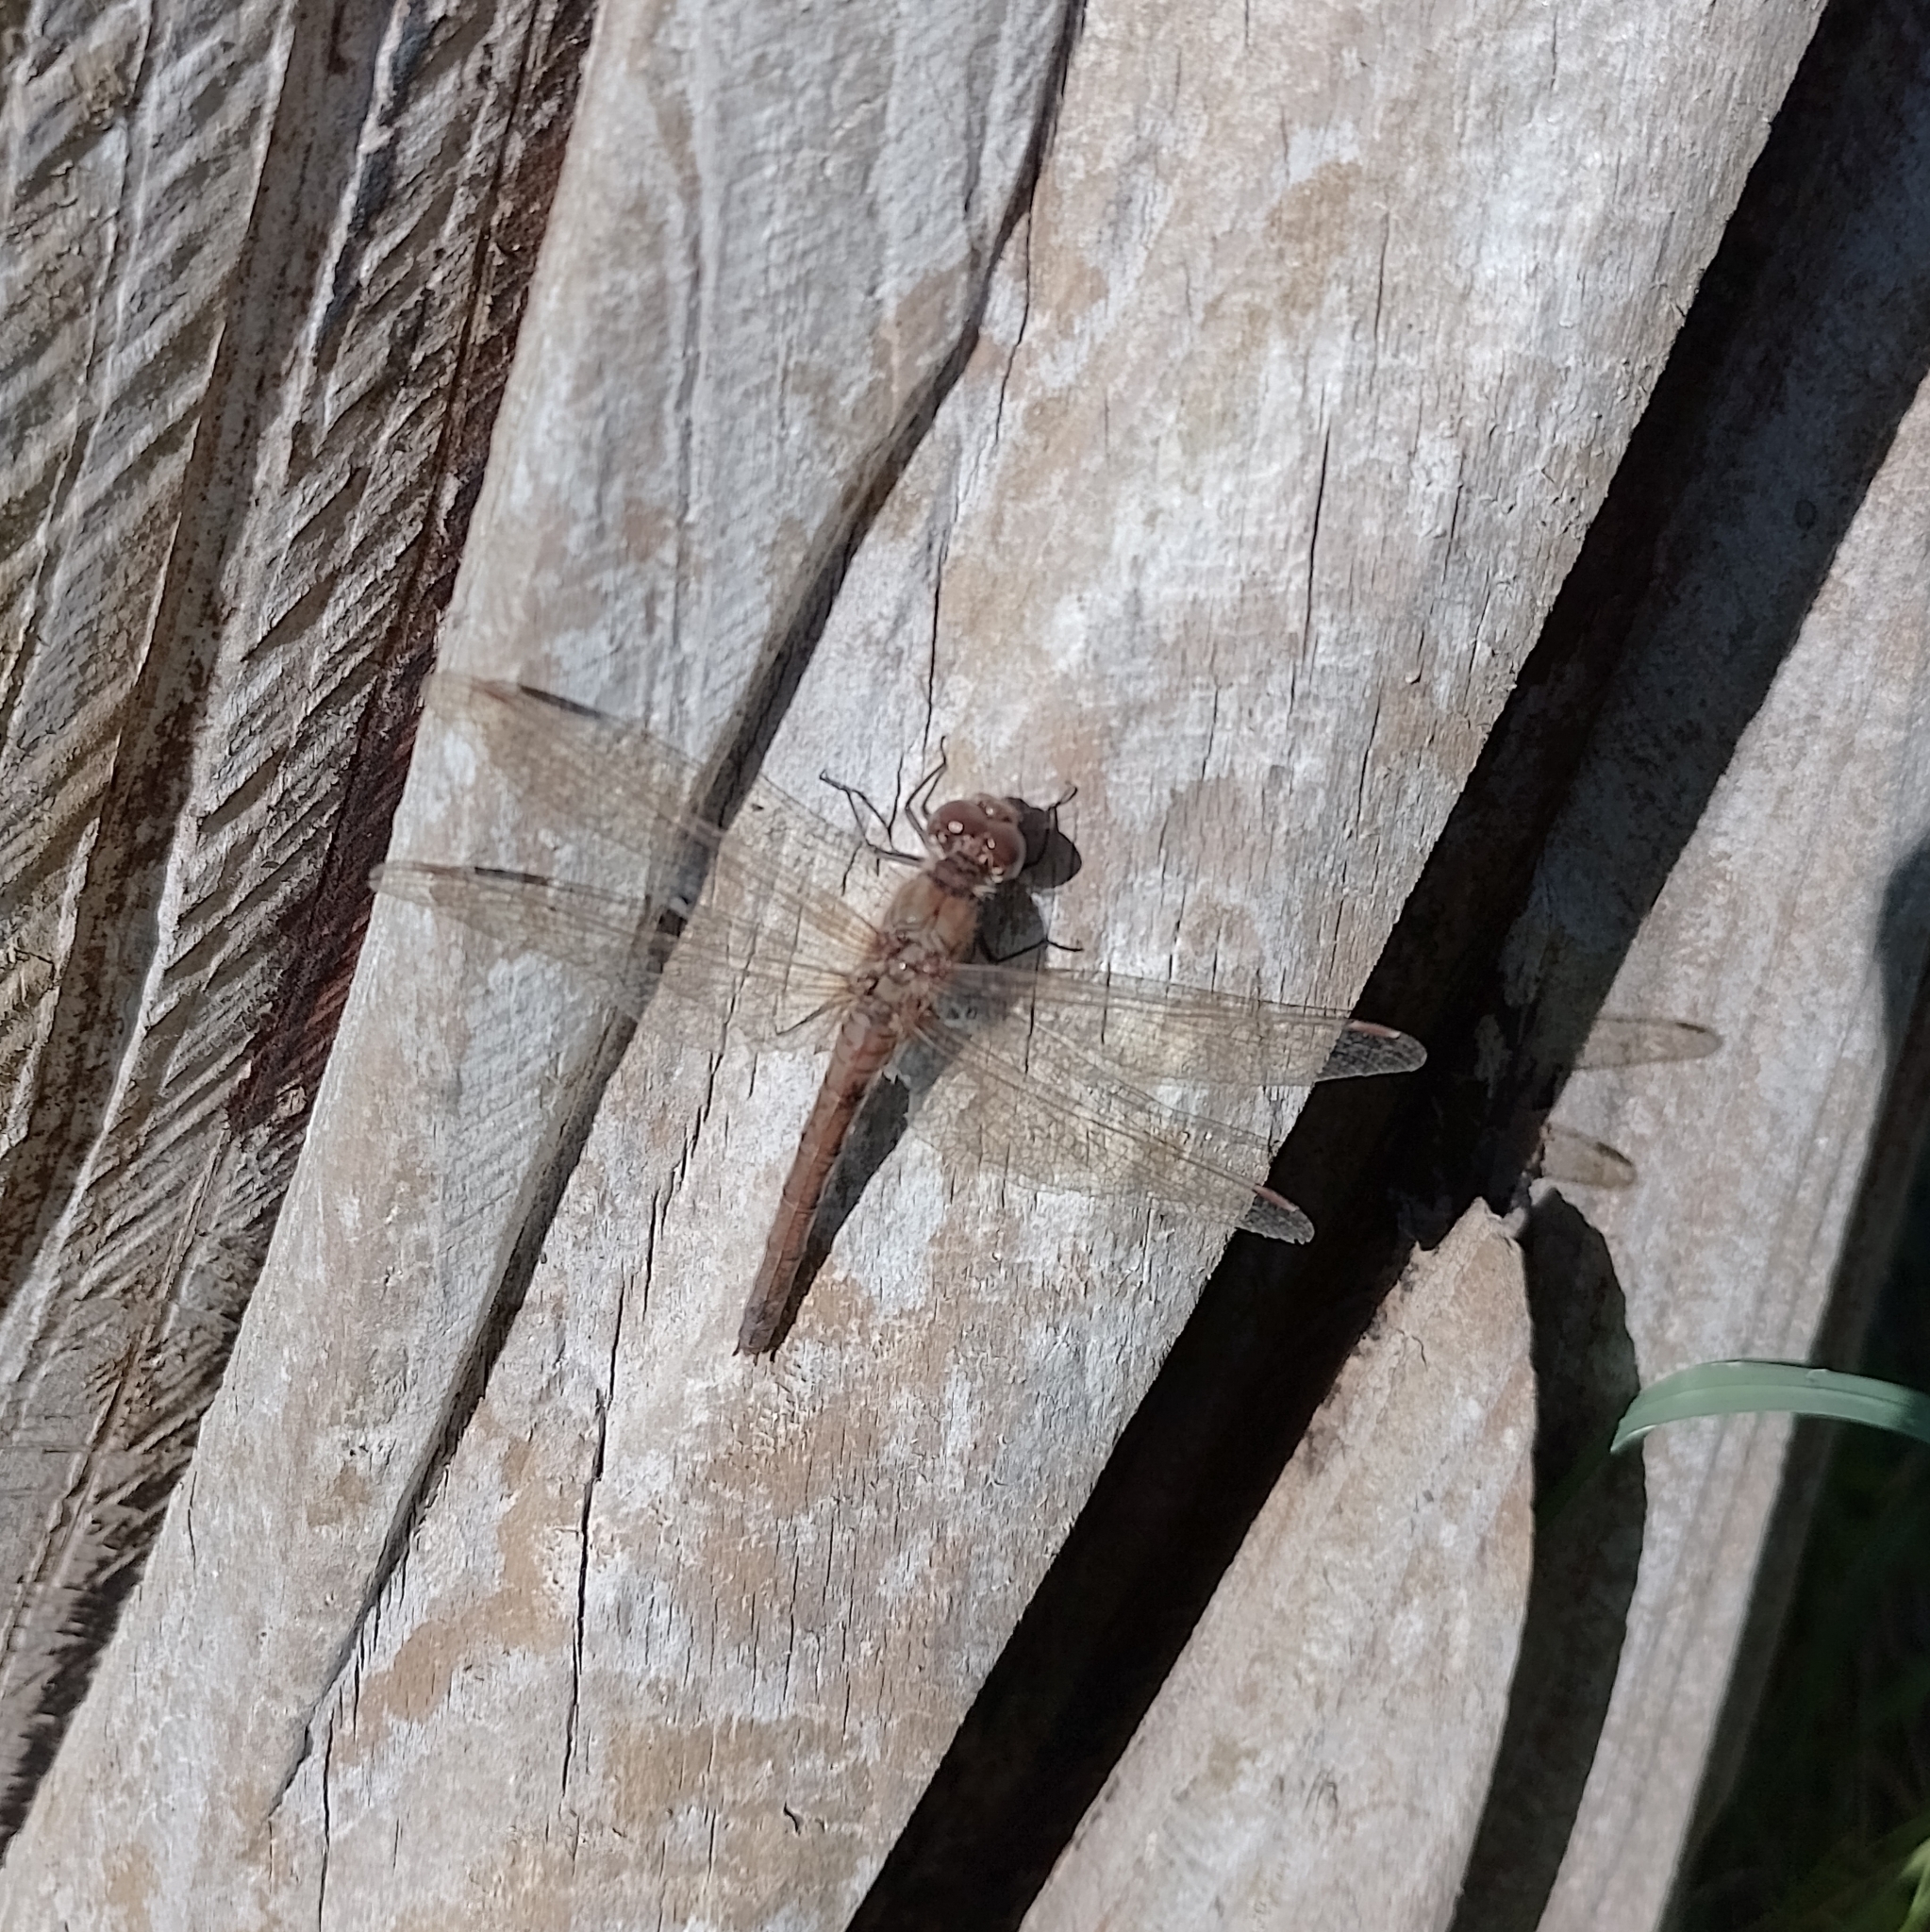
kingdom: Animalia
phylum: Arthropoda
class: Insecta
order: Odonata
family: Libellulidae
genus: Sympetrum
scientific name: Sympetrum striolatum
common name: Common darter
